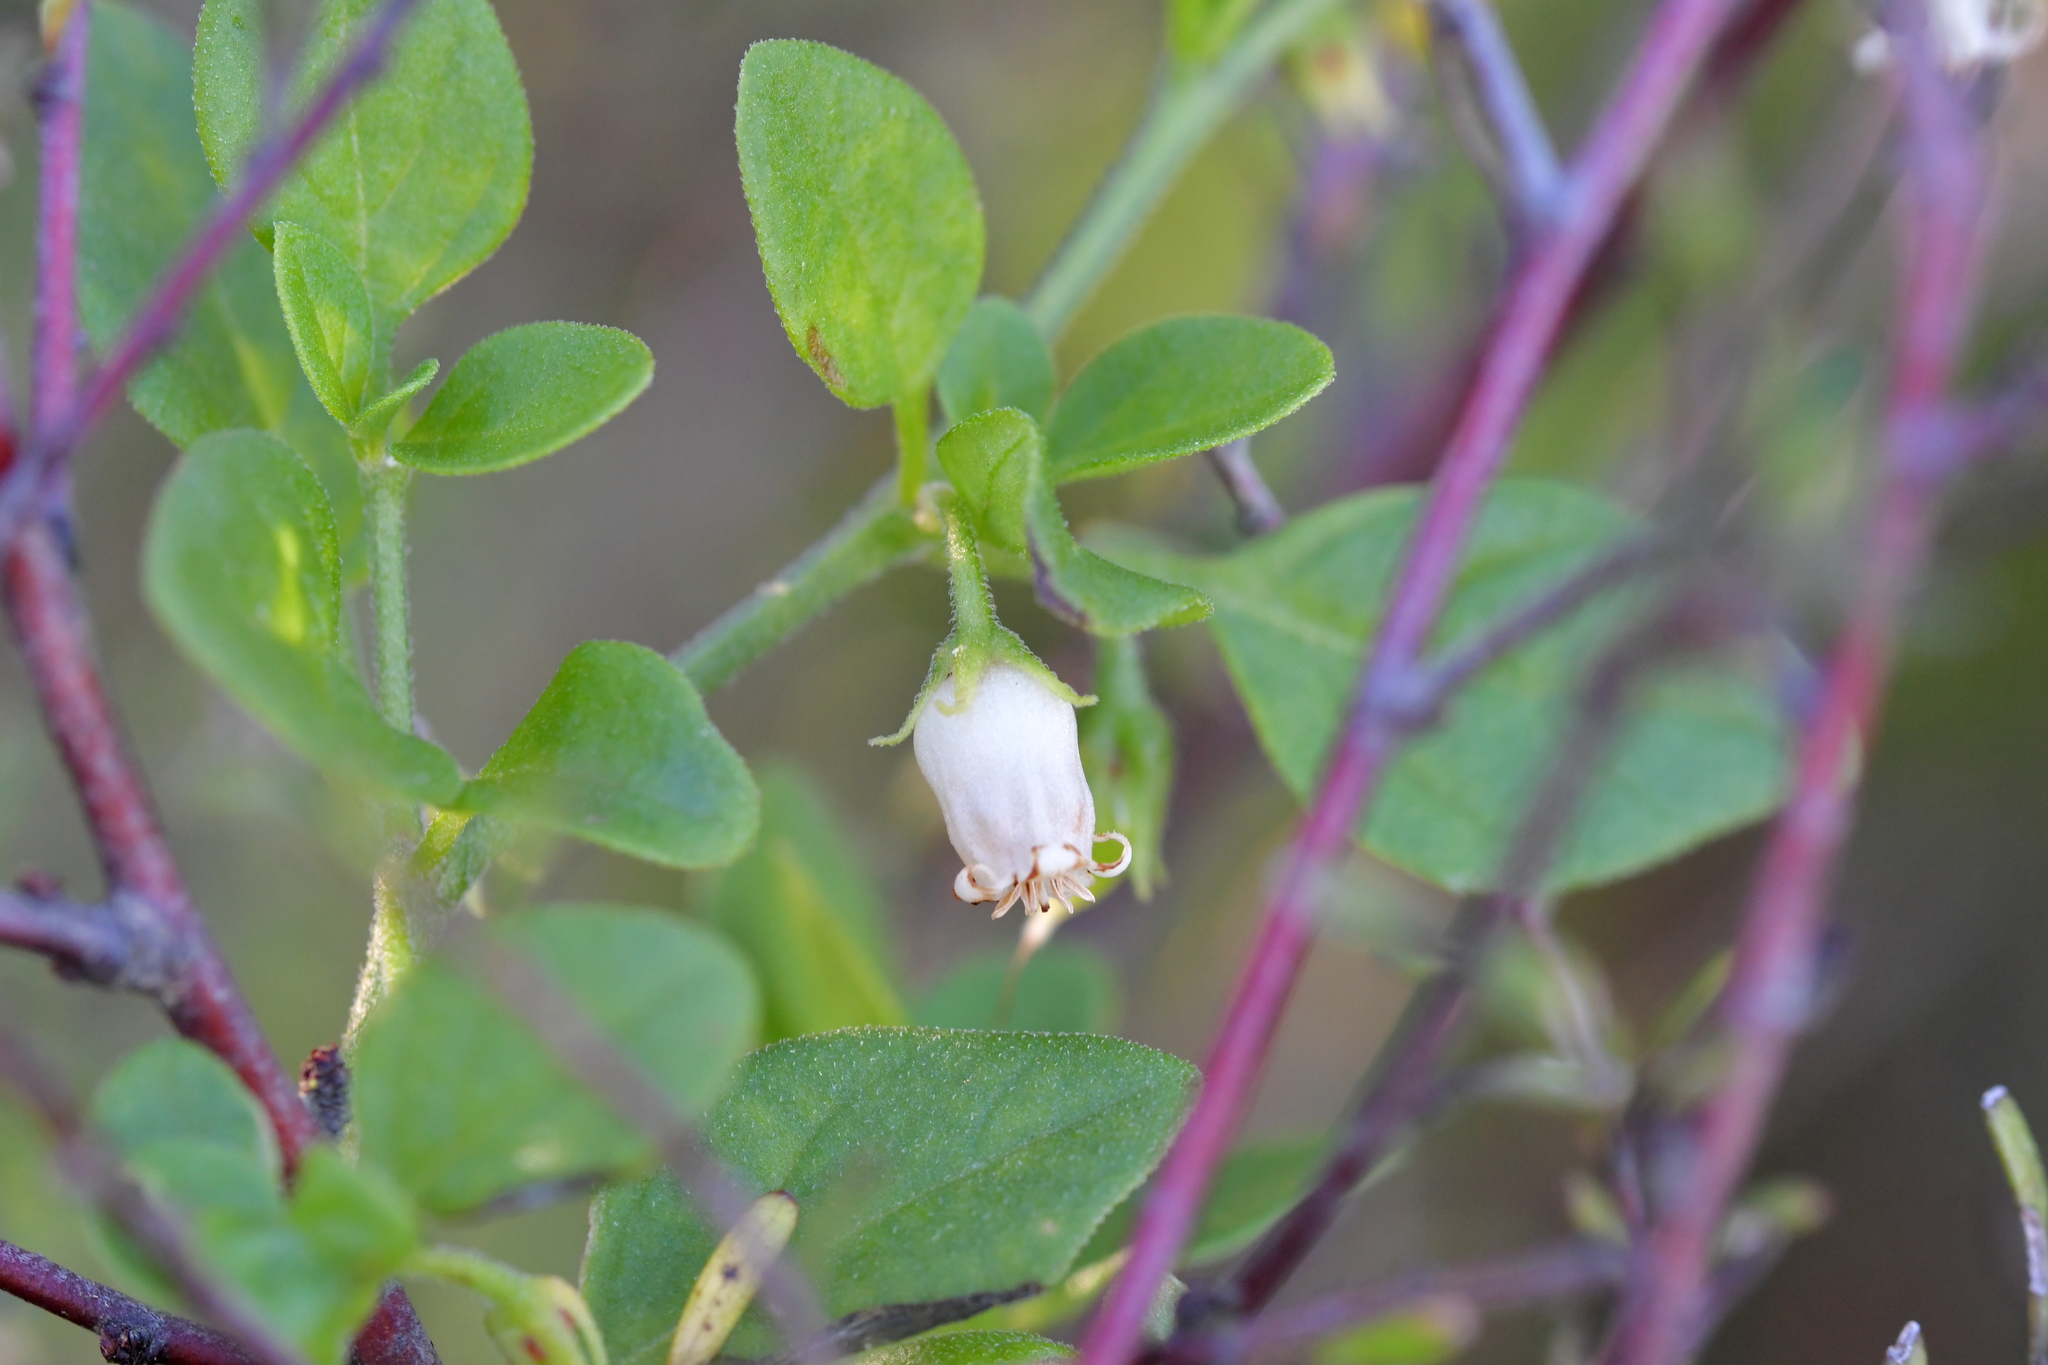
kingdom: Plantae
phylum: Tracheophyta
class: Magnoliopsida
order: Solanales
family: Solanaceae
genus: Salpichroa
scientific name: Salpichroa origanifolia
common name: Lily-of-the-valley-vine
